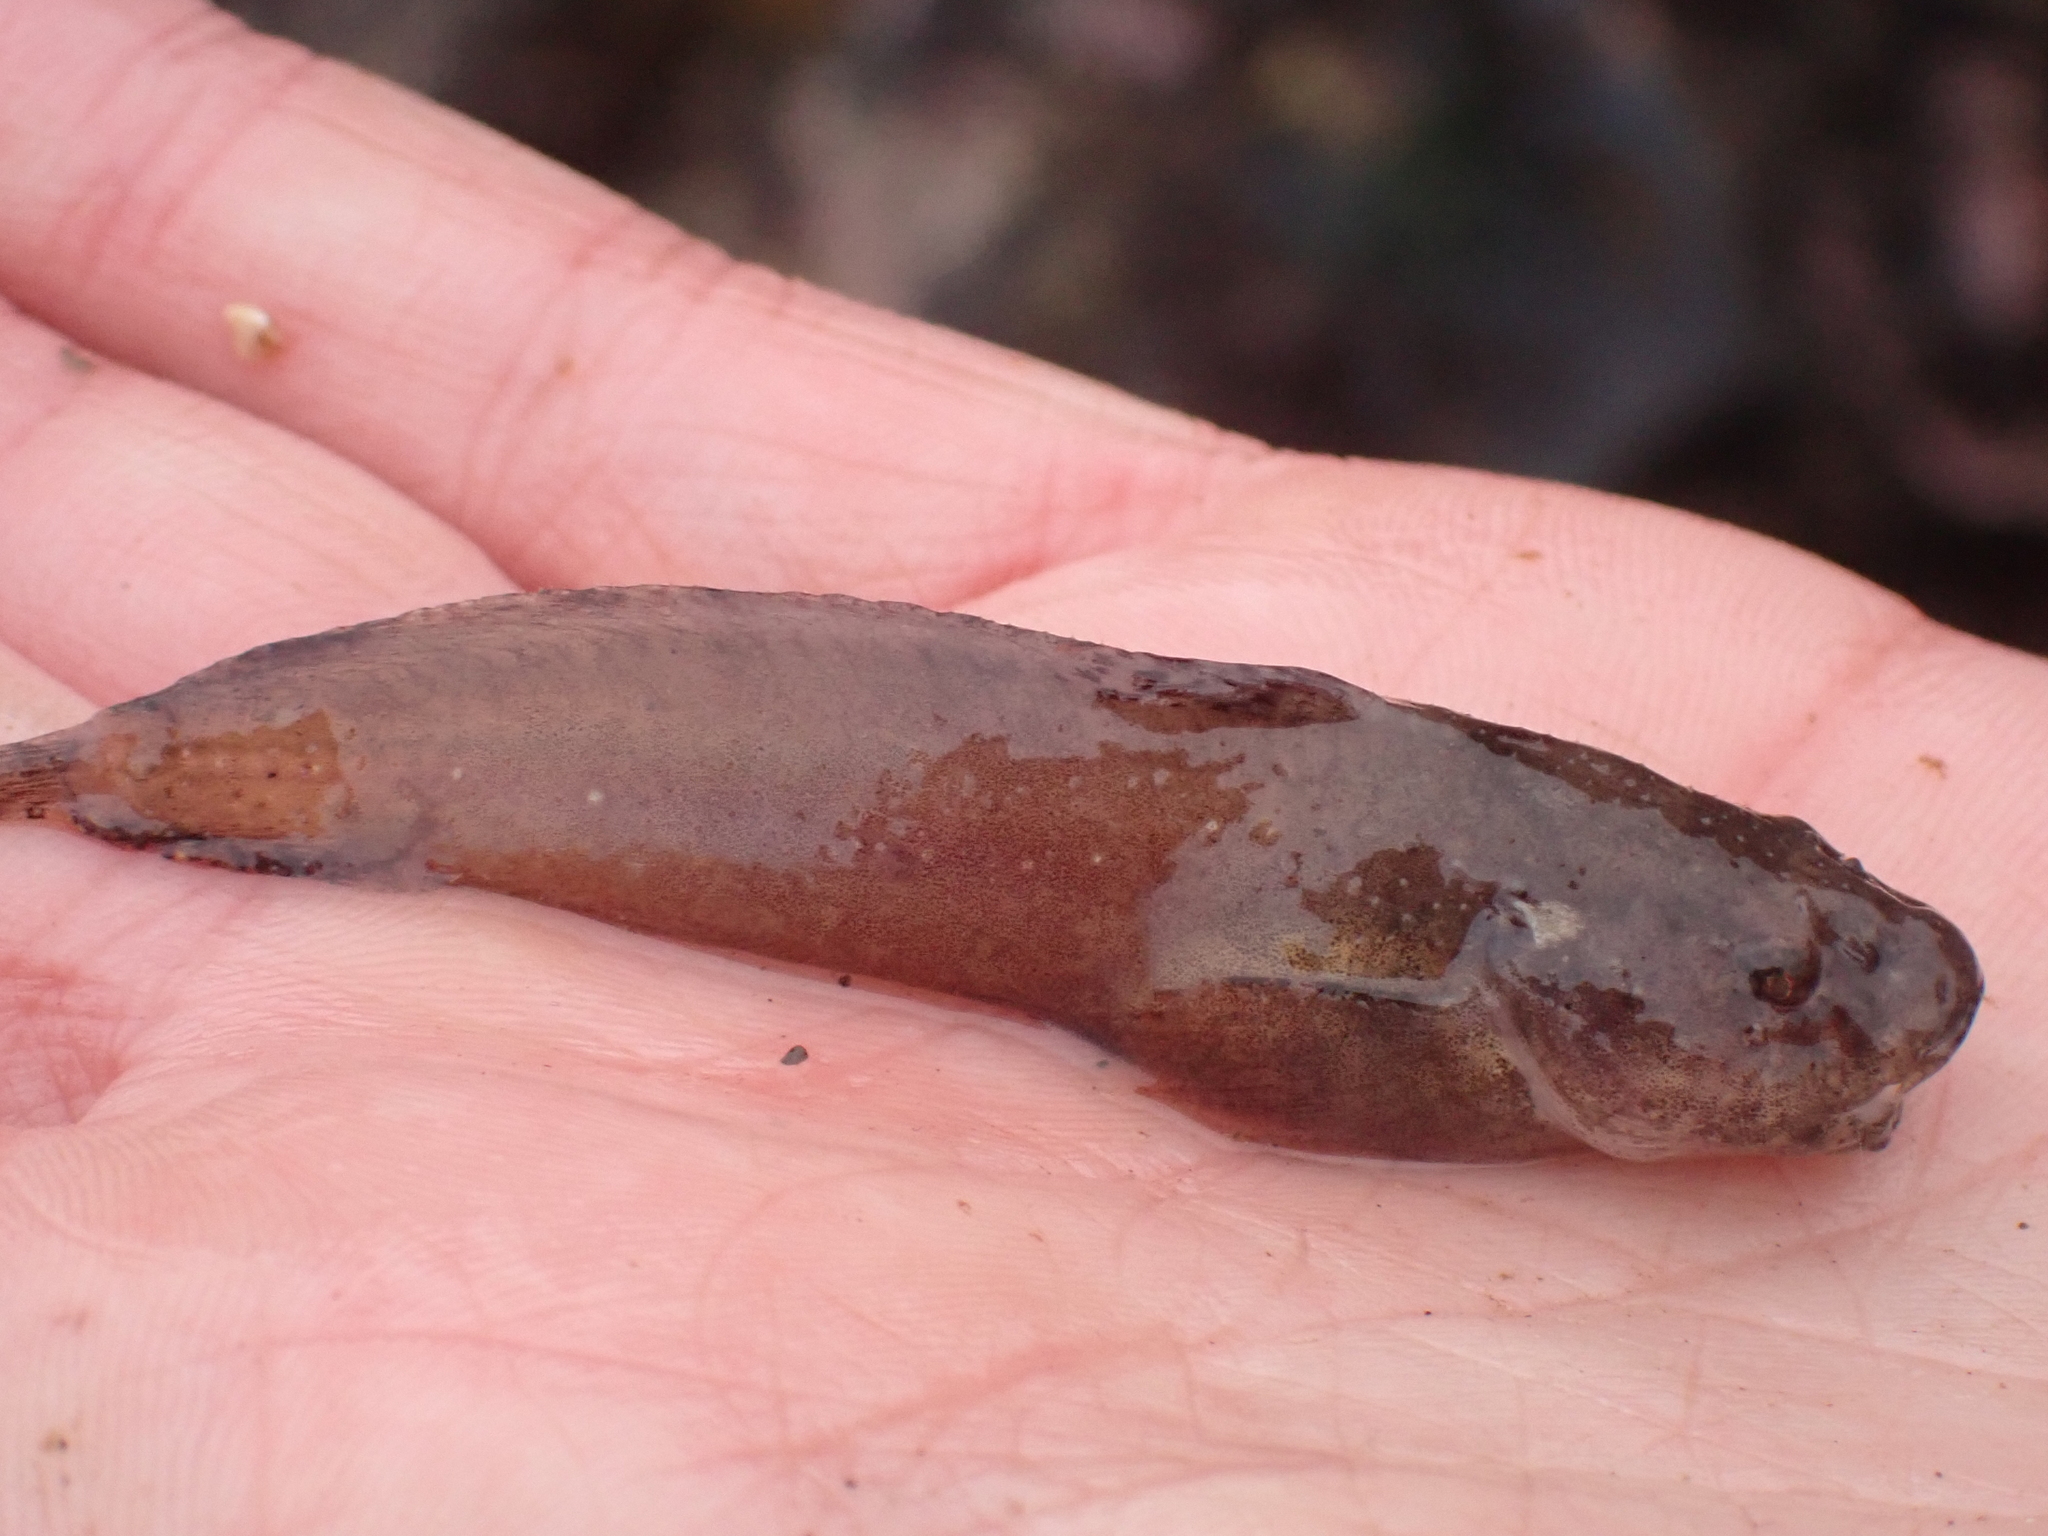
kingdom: Animalia
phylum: Chordata
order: Scorpaeniformes
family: Liparidae
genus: Liparis
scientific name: Liparis atlanticus
